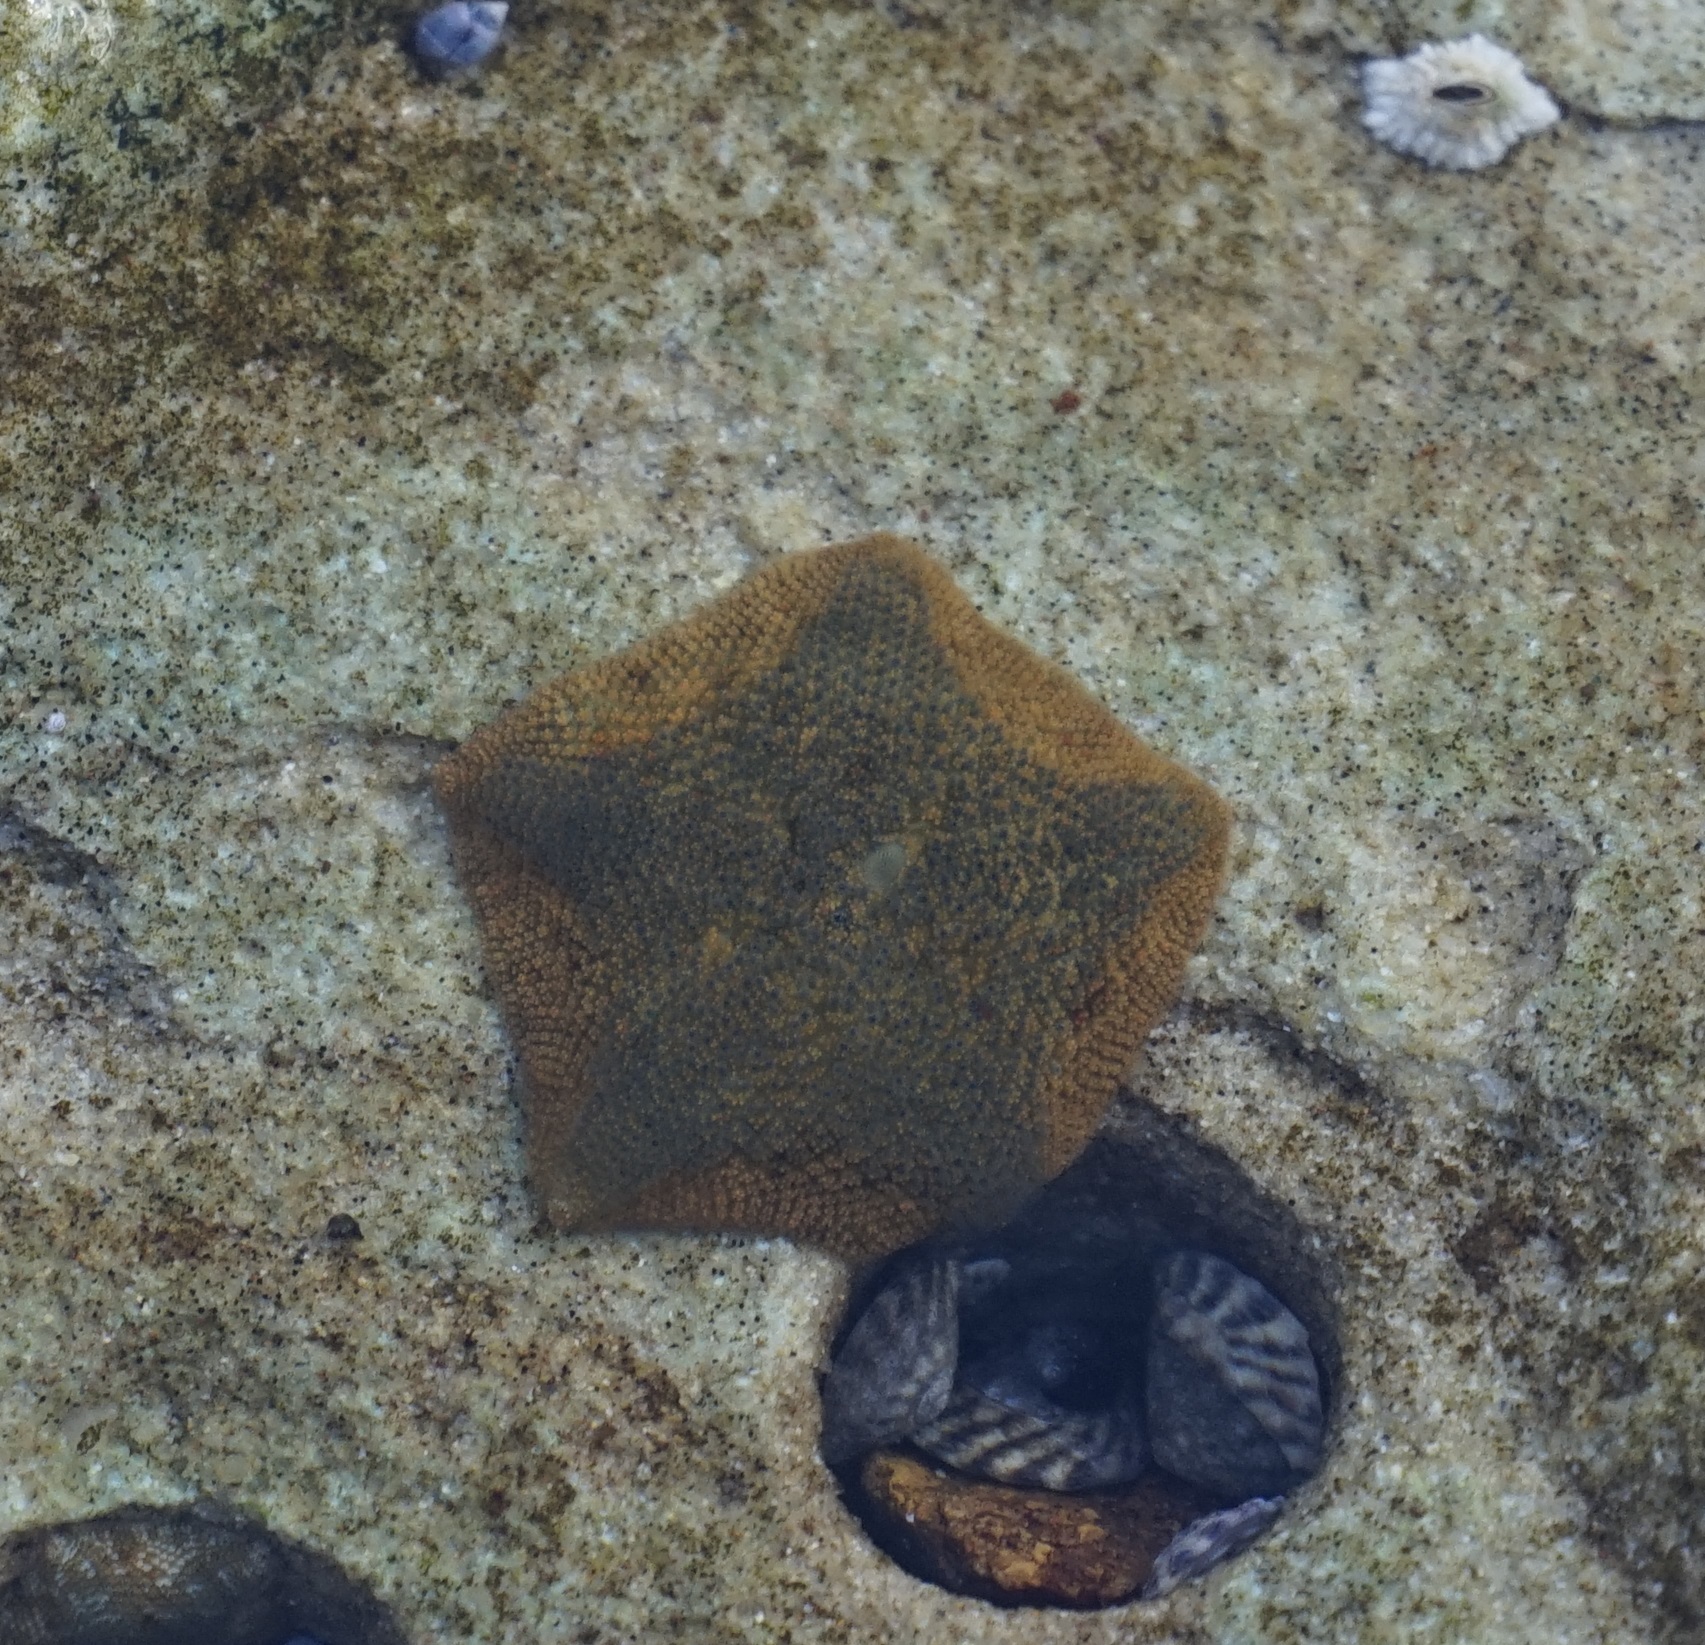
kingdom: Animalia
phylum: Echinodermata
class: Asteroidea
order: Valvatida
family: Asterinidae
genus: Parvulastra
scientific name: Parvulastra exigua
